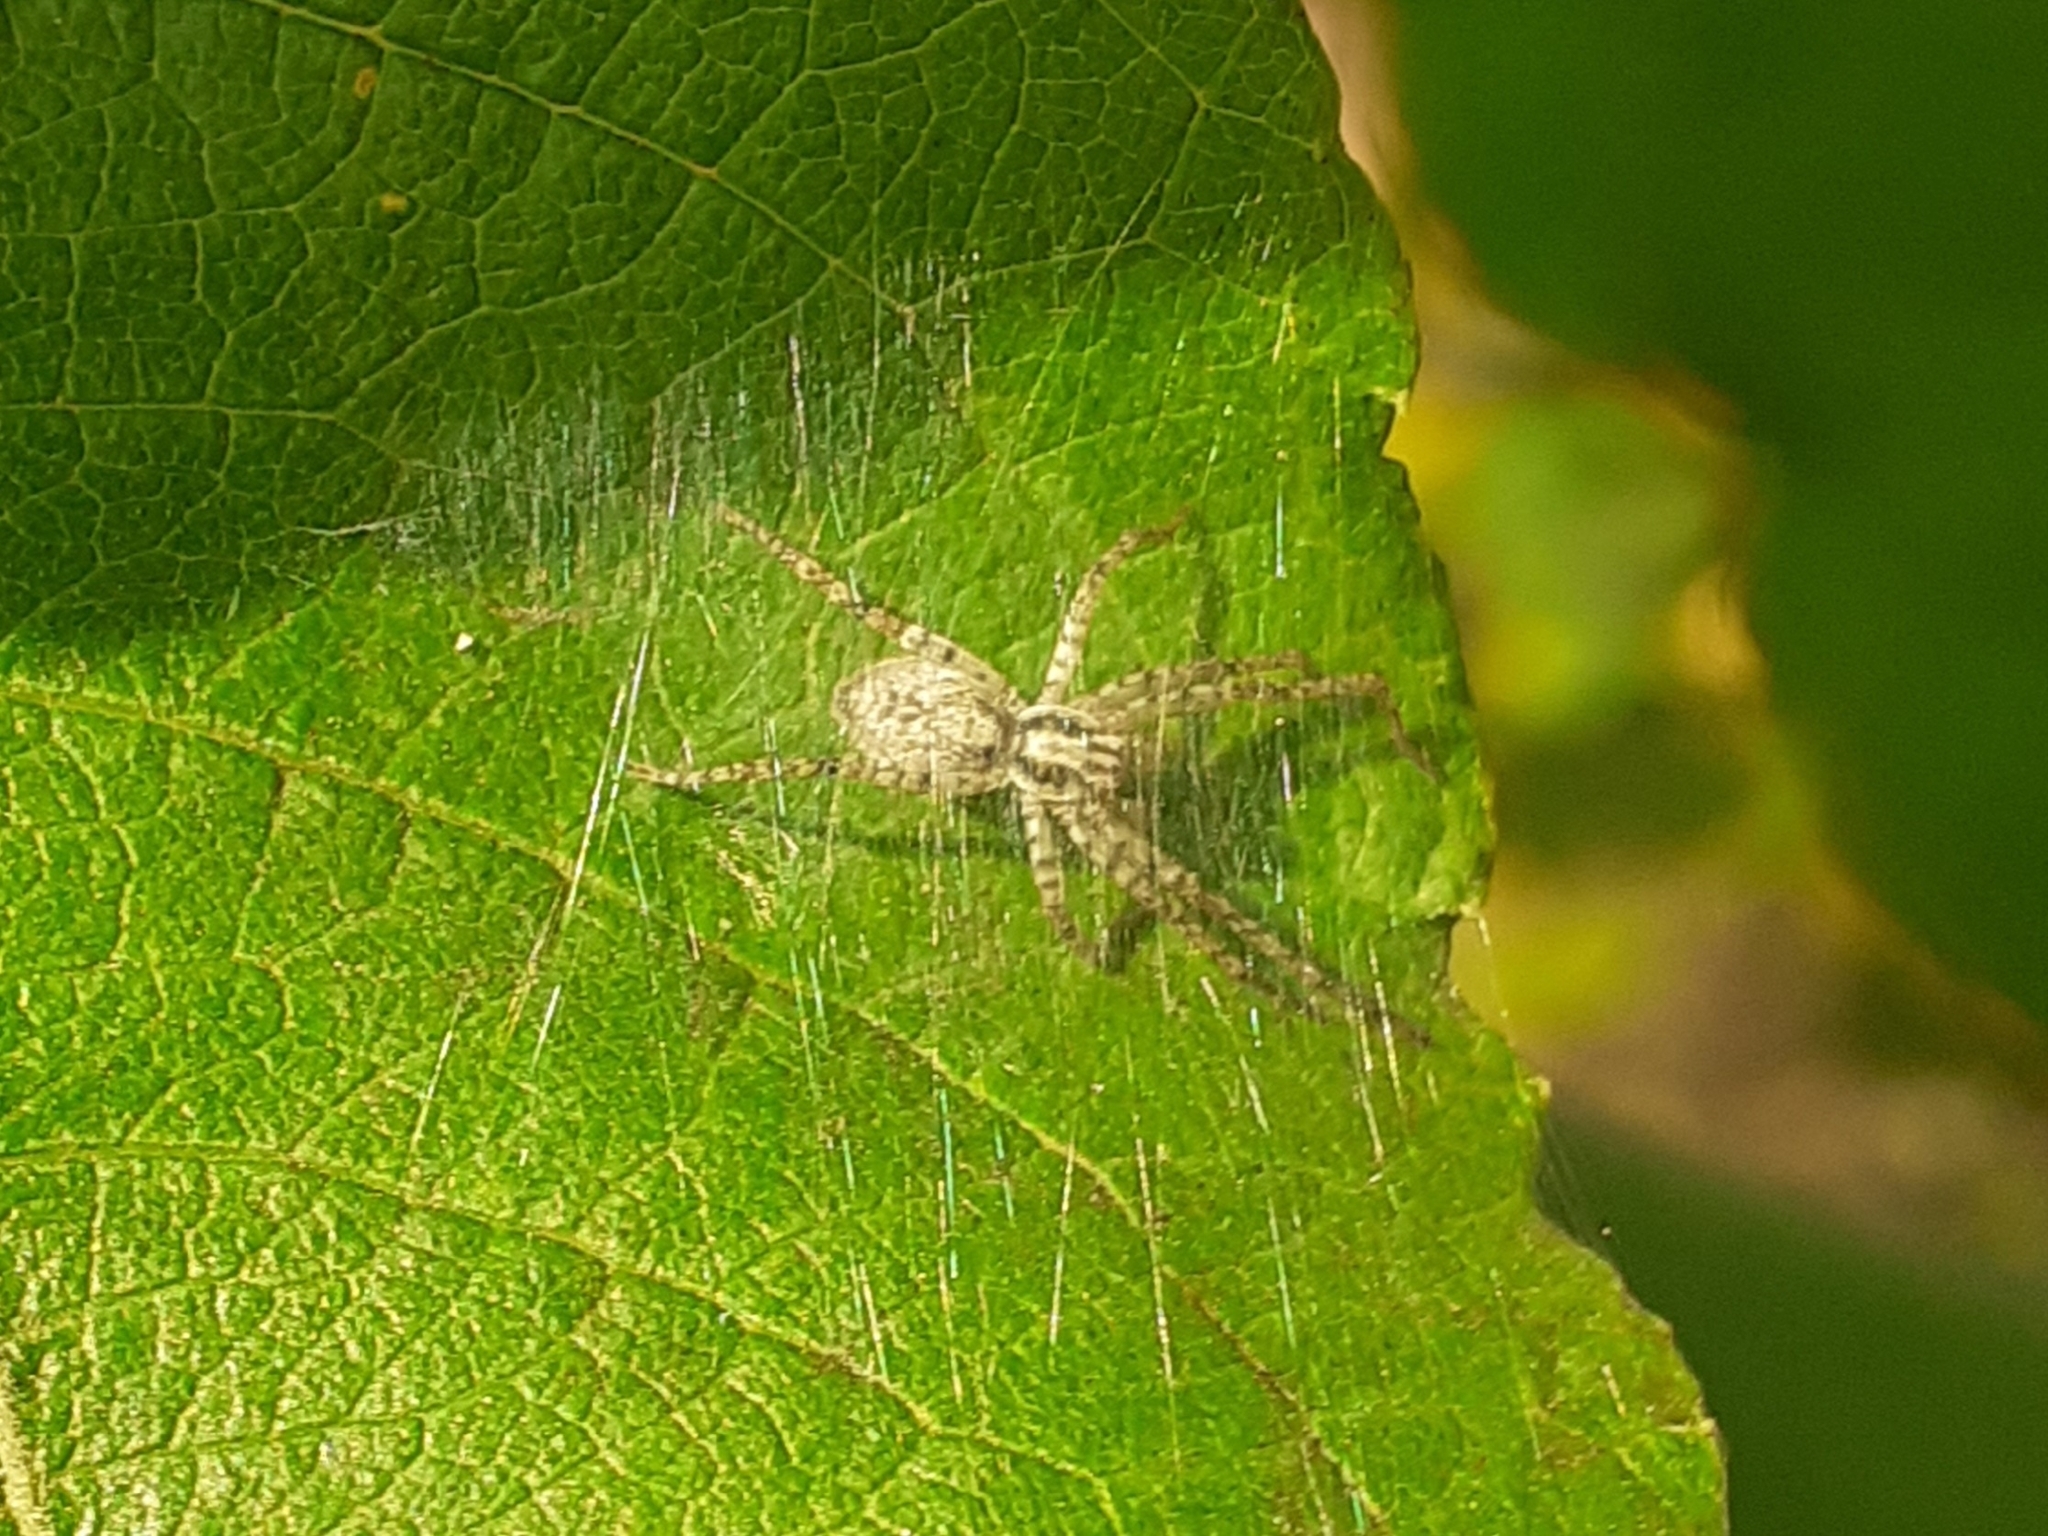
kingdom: Animalia
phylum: Arthropoda
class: Arachnida
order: Araneae
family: Anyphaenidae
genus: Anyphaena
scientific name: Anyphaena accentuata
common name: Buzzing spider
